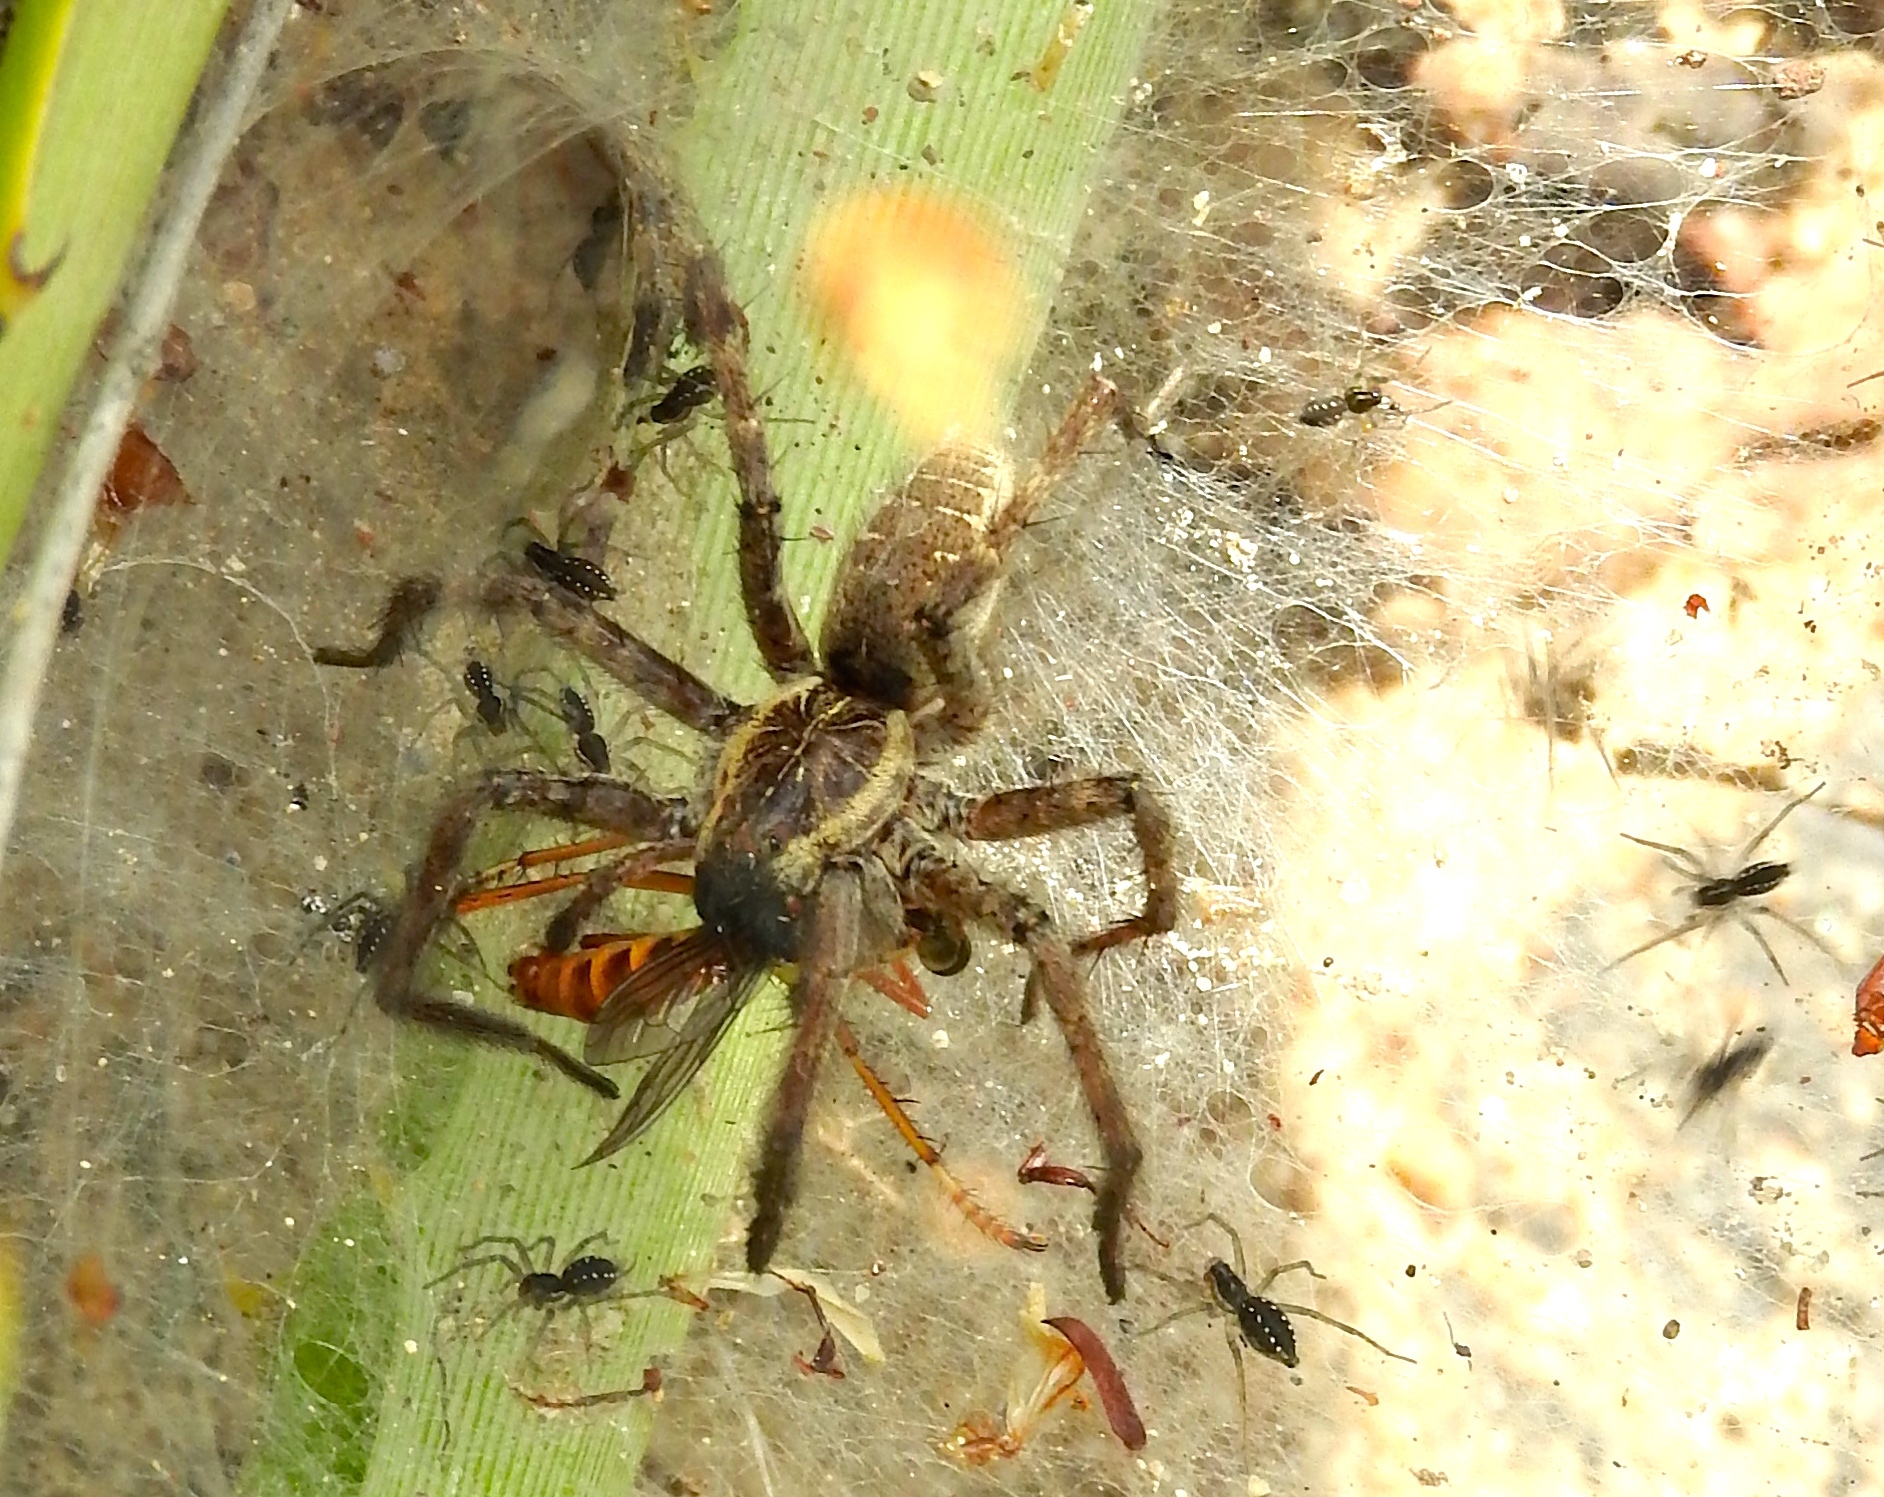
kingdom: Animalia
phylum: Arthropoda
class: Arachnida
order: Araneae
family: Lycosidae
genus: Sosippus
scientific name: Sosippus
